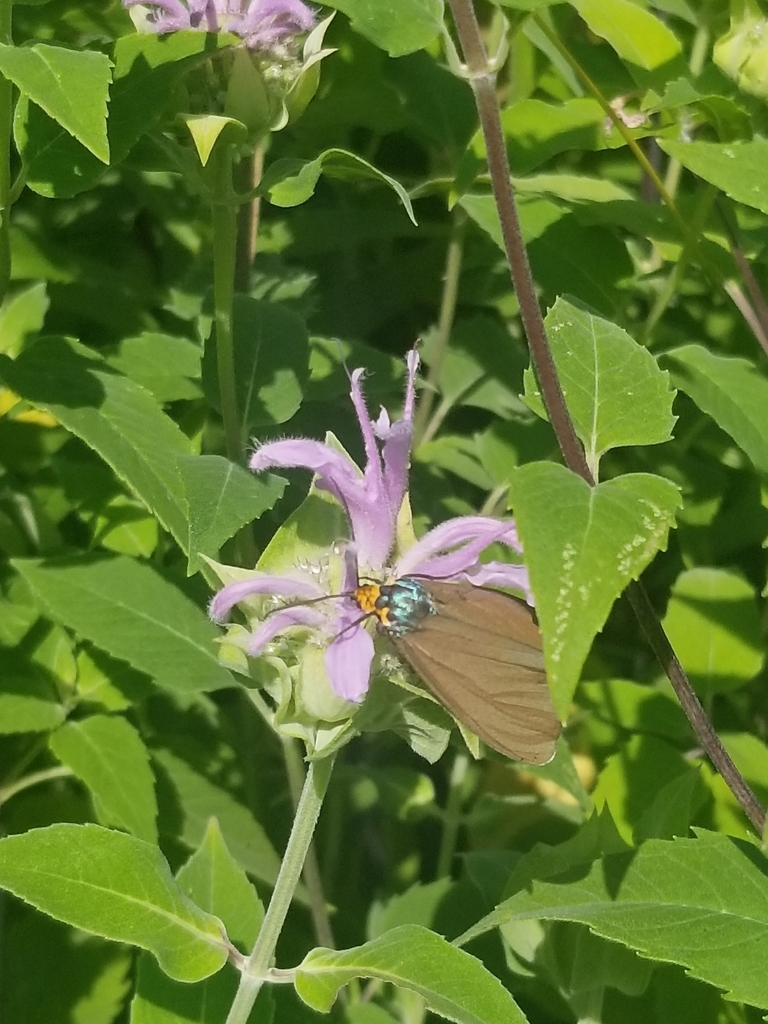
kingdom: Animalia
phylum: Arthropoda
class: Insecta
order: Lepidoptera
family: Erebidae
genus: Ctenucha
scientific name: Ctenucha virginica
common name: Virginia ctenucha moth
